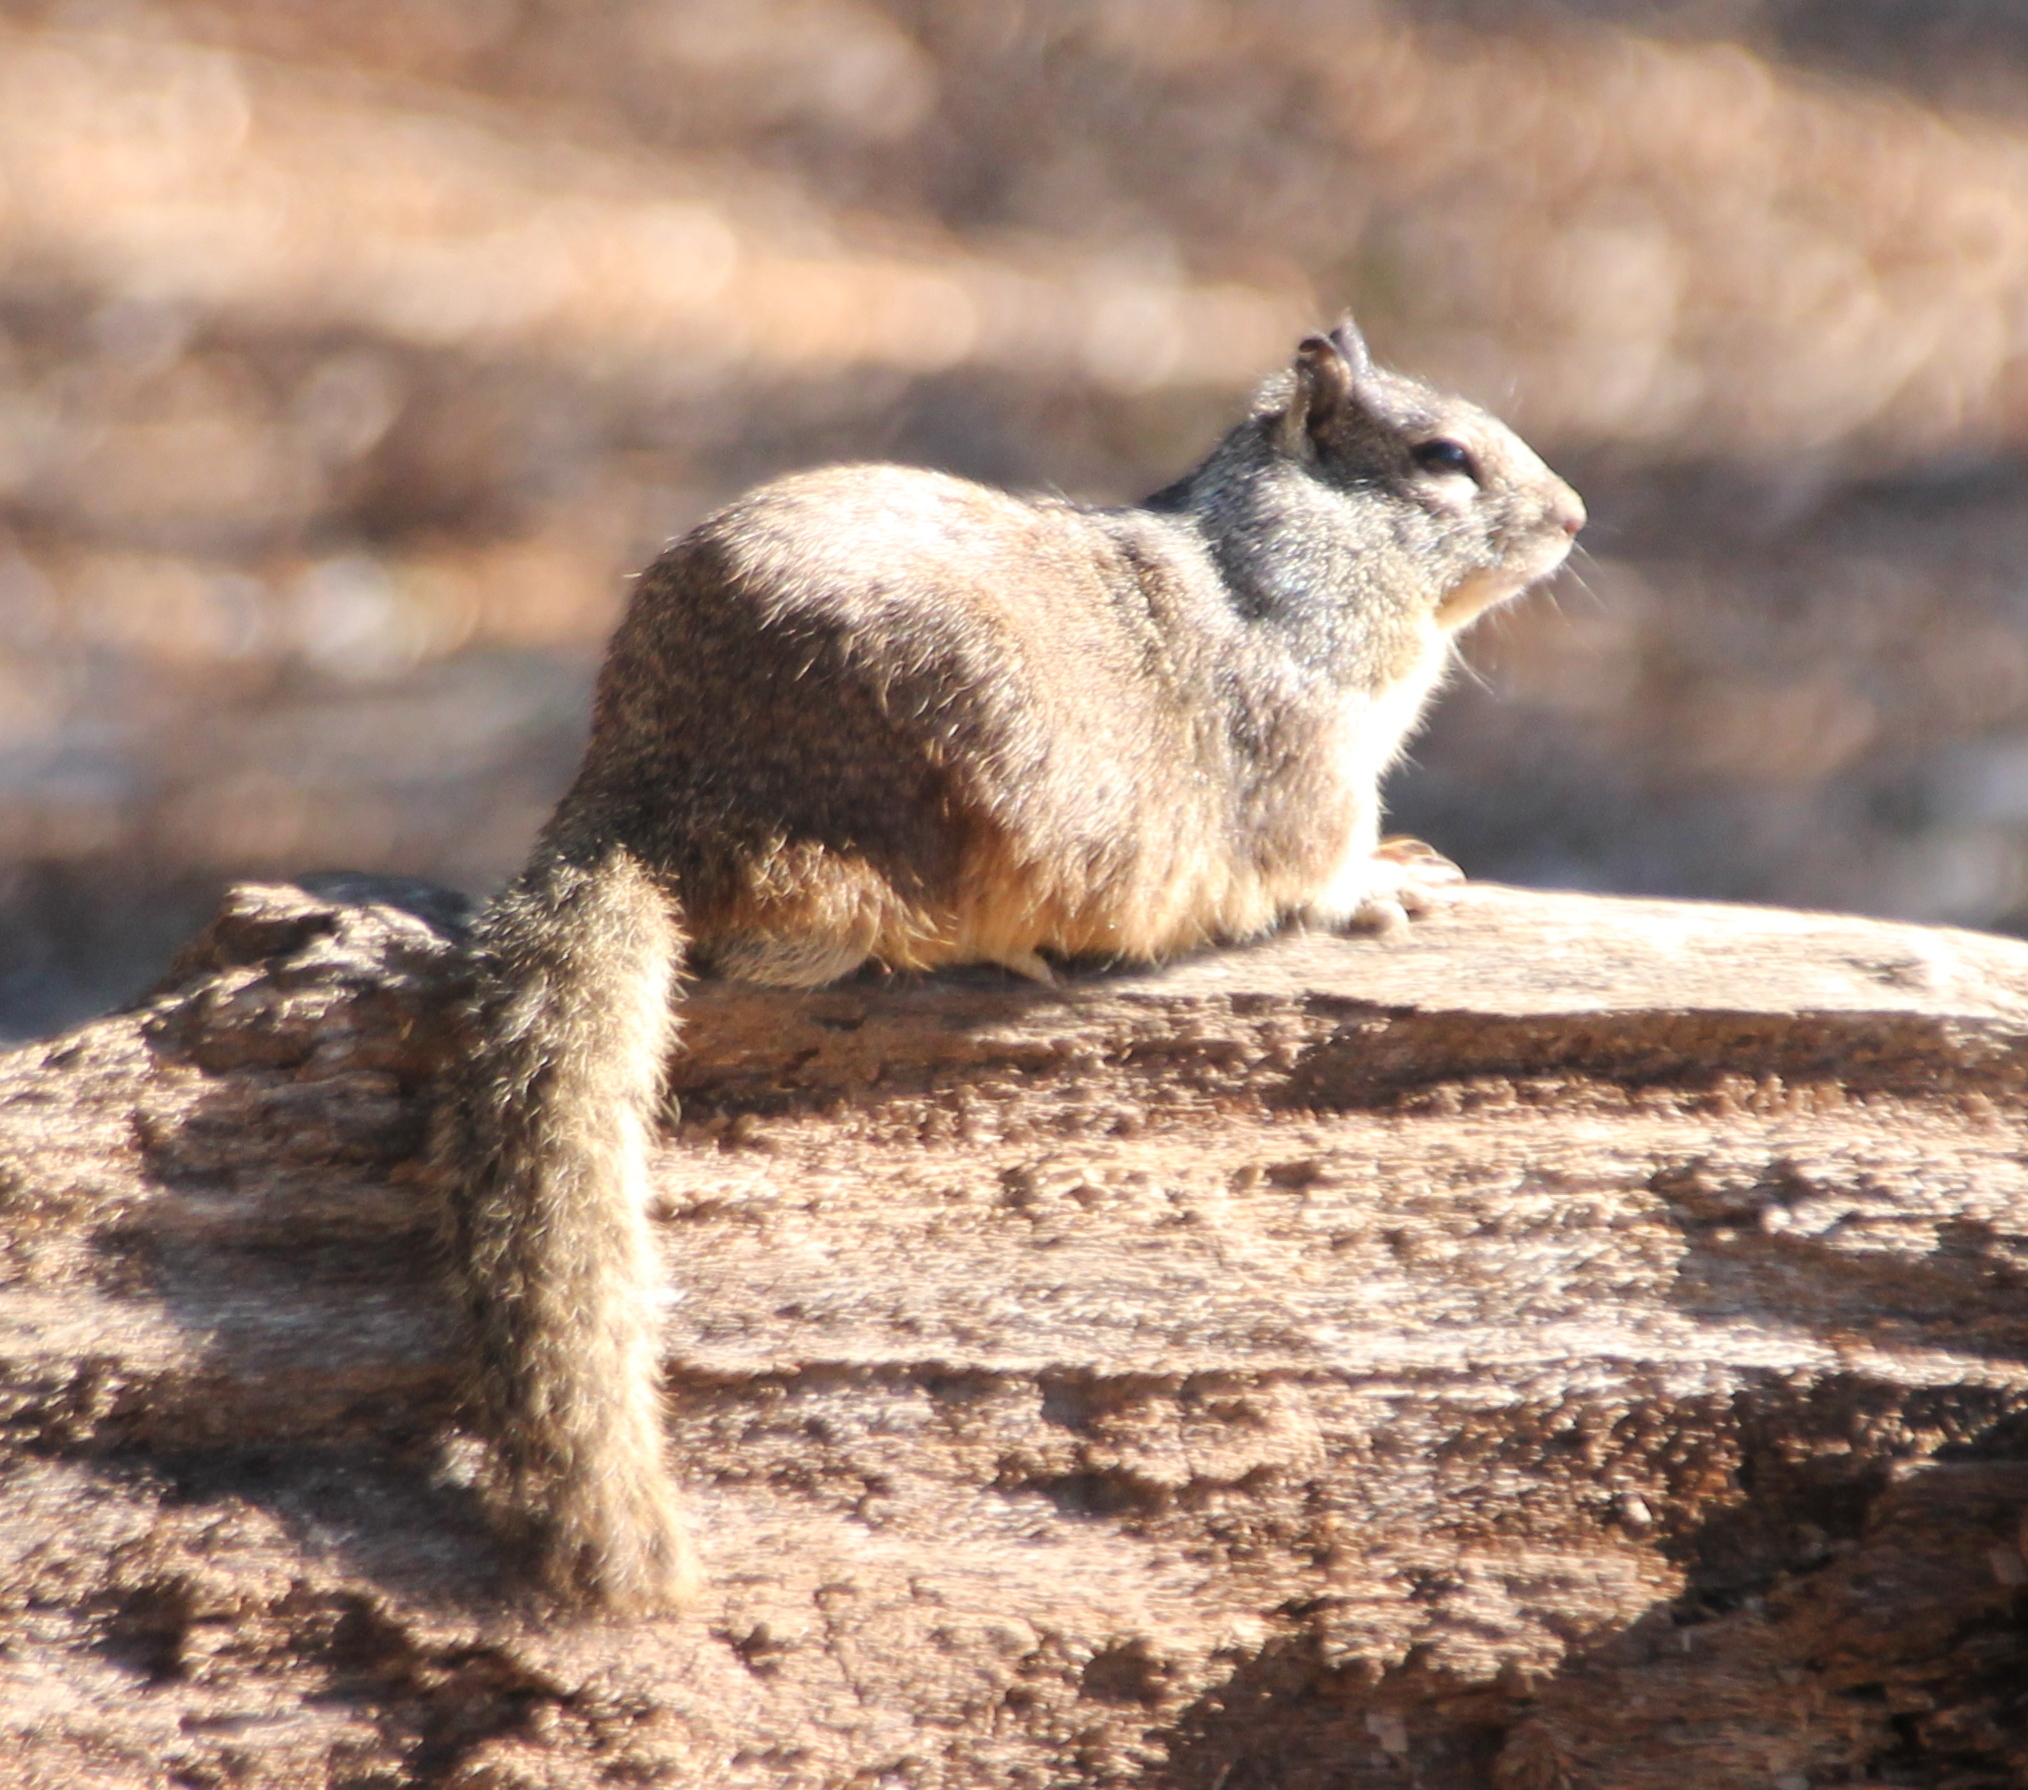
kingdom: Animalia
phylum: Chordata
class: Mammalia
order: Rodentia
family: Sciuridae
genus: Otospermophilus
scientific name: Otospermophilus beecheyi
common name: California ground squirrel
